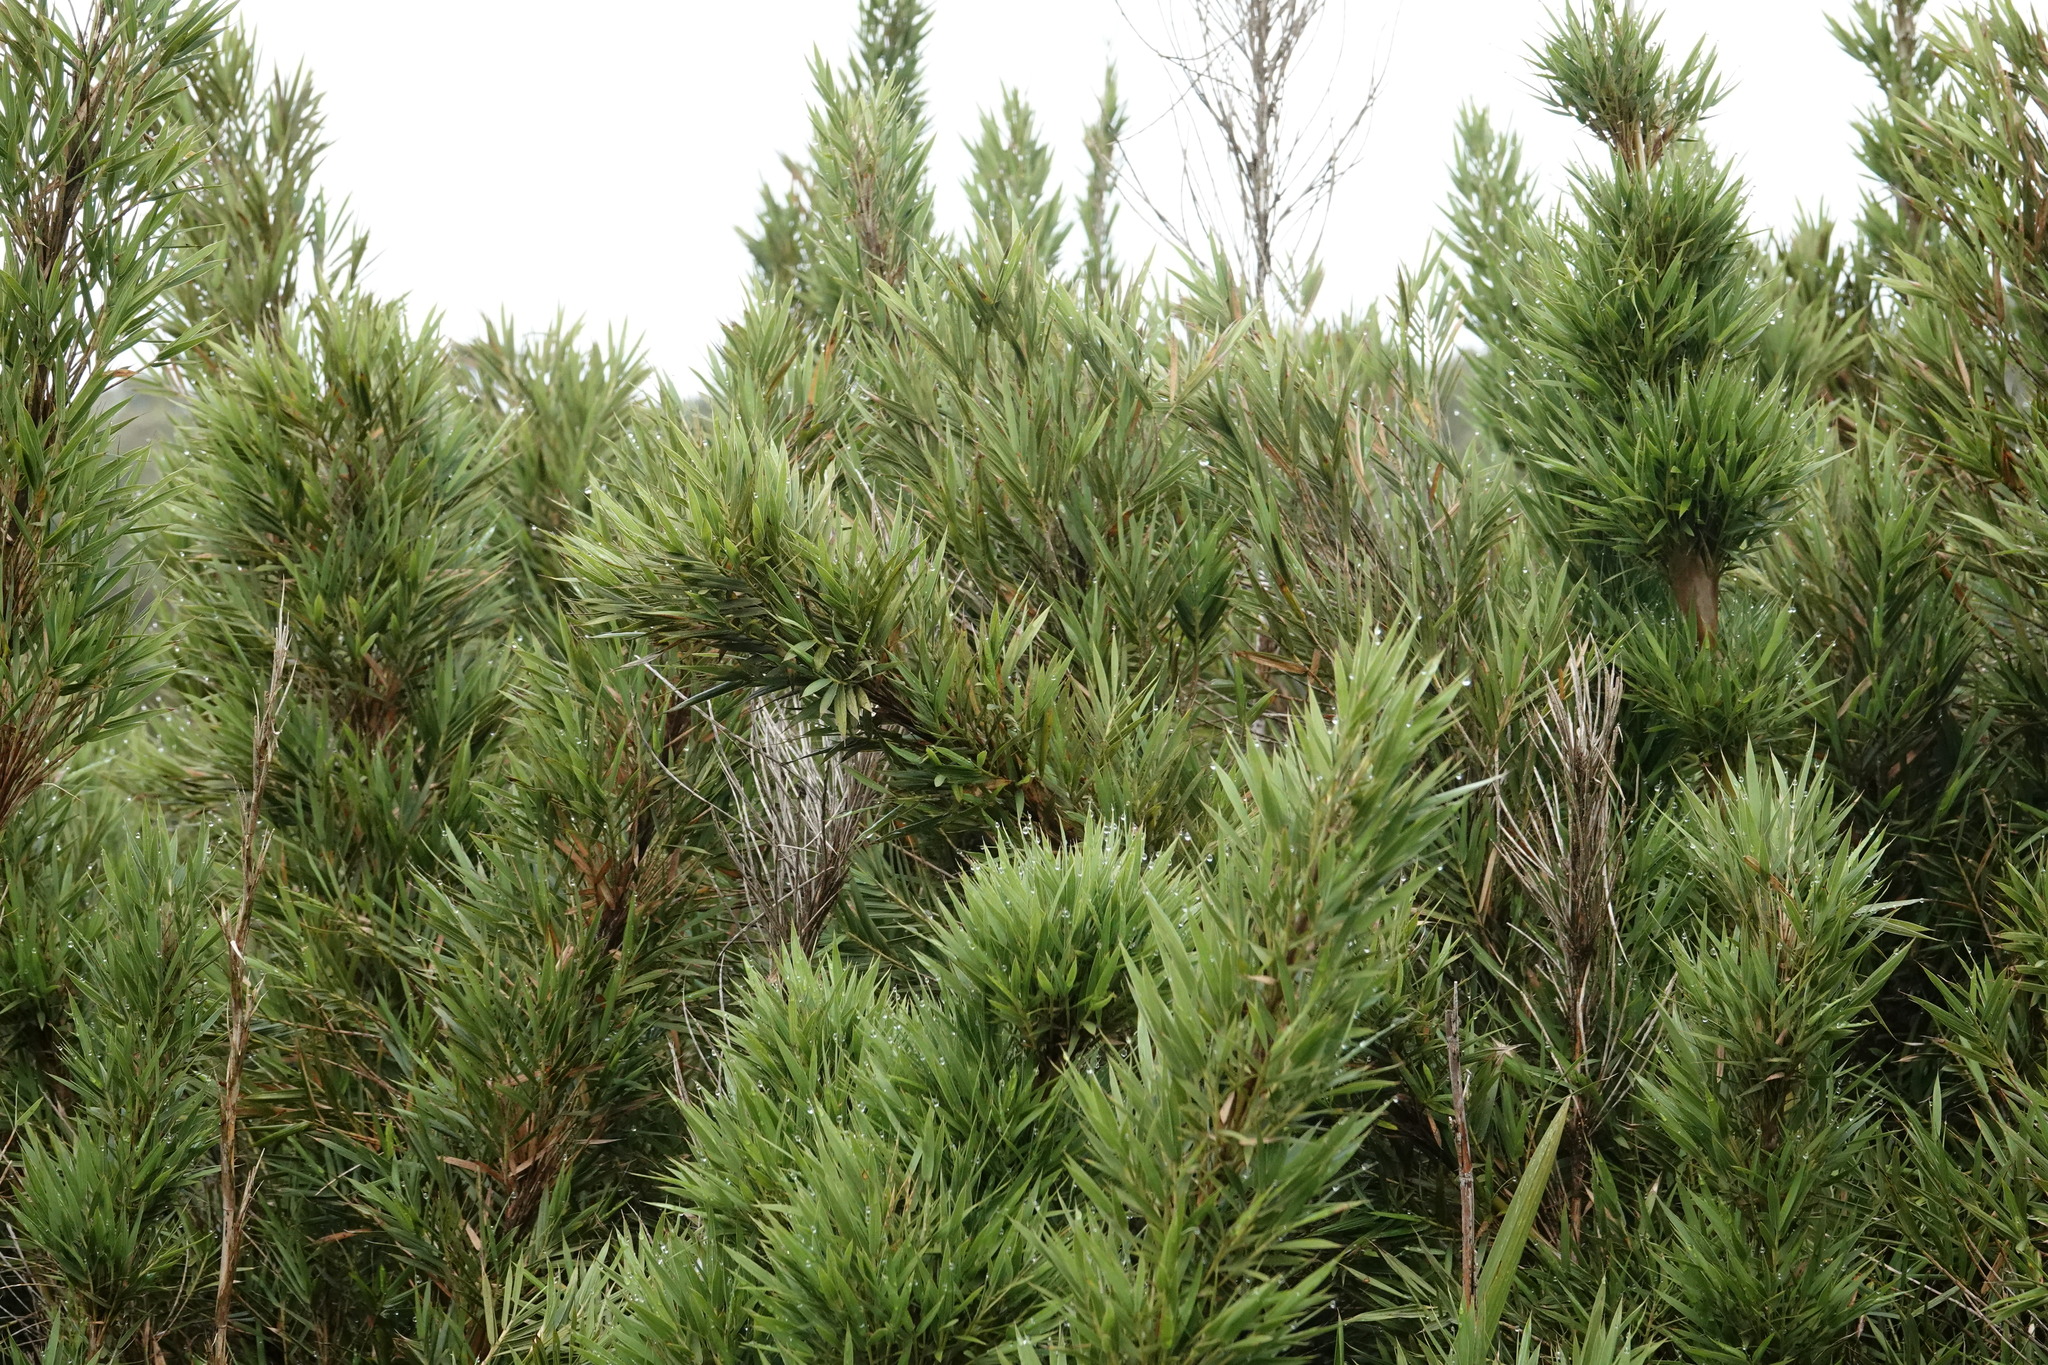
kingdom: Plantae
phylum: Tracheophyta
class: Liliopsida
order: Poales
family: Poaceae
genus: Kuruna
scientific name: Kuruna densifolia
